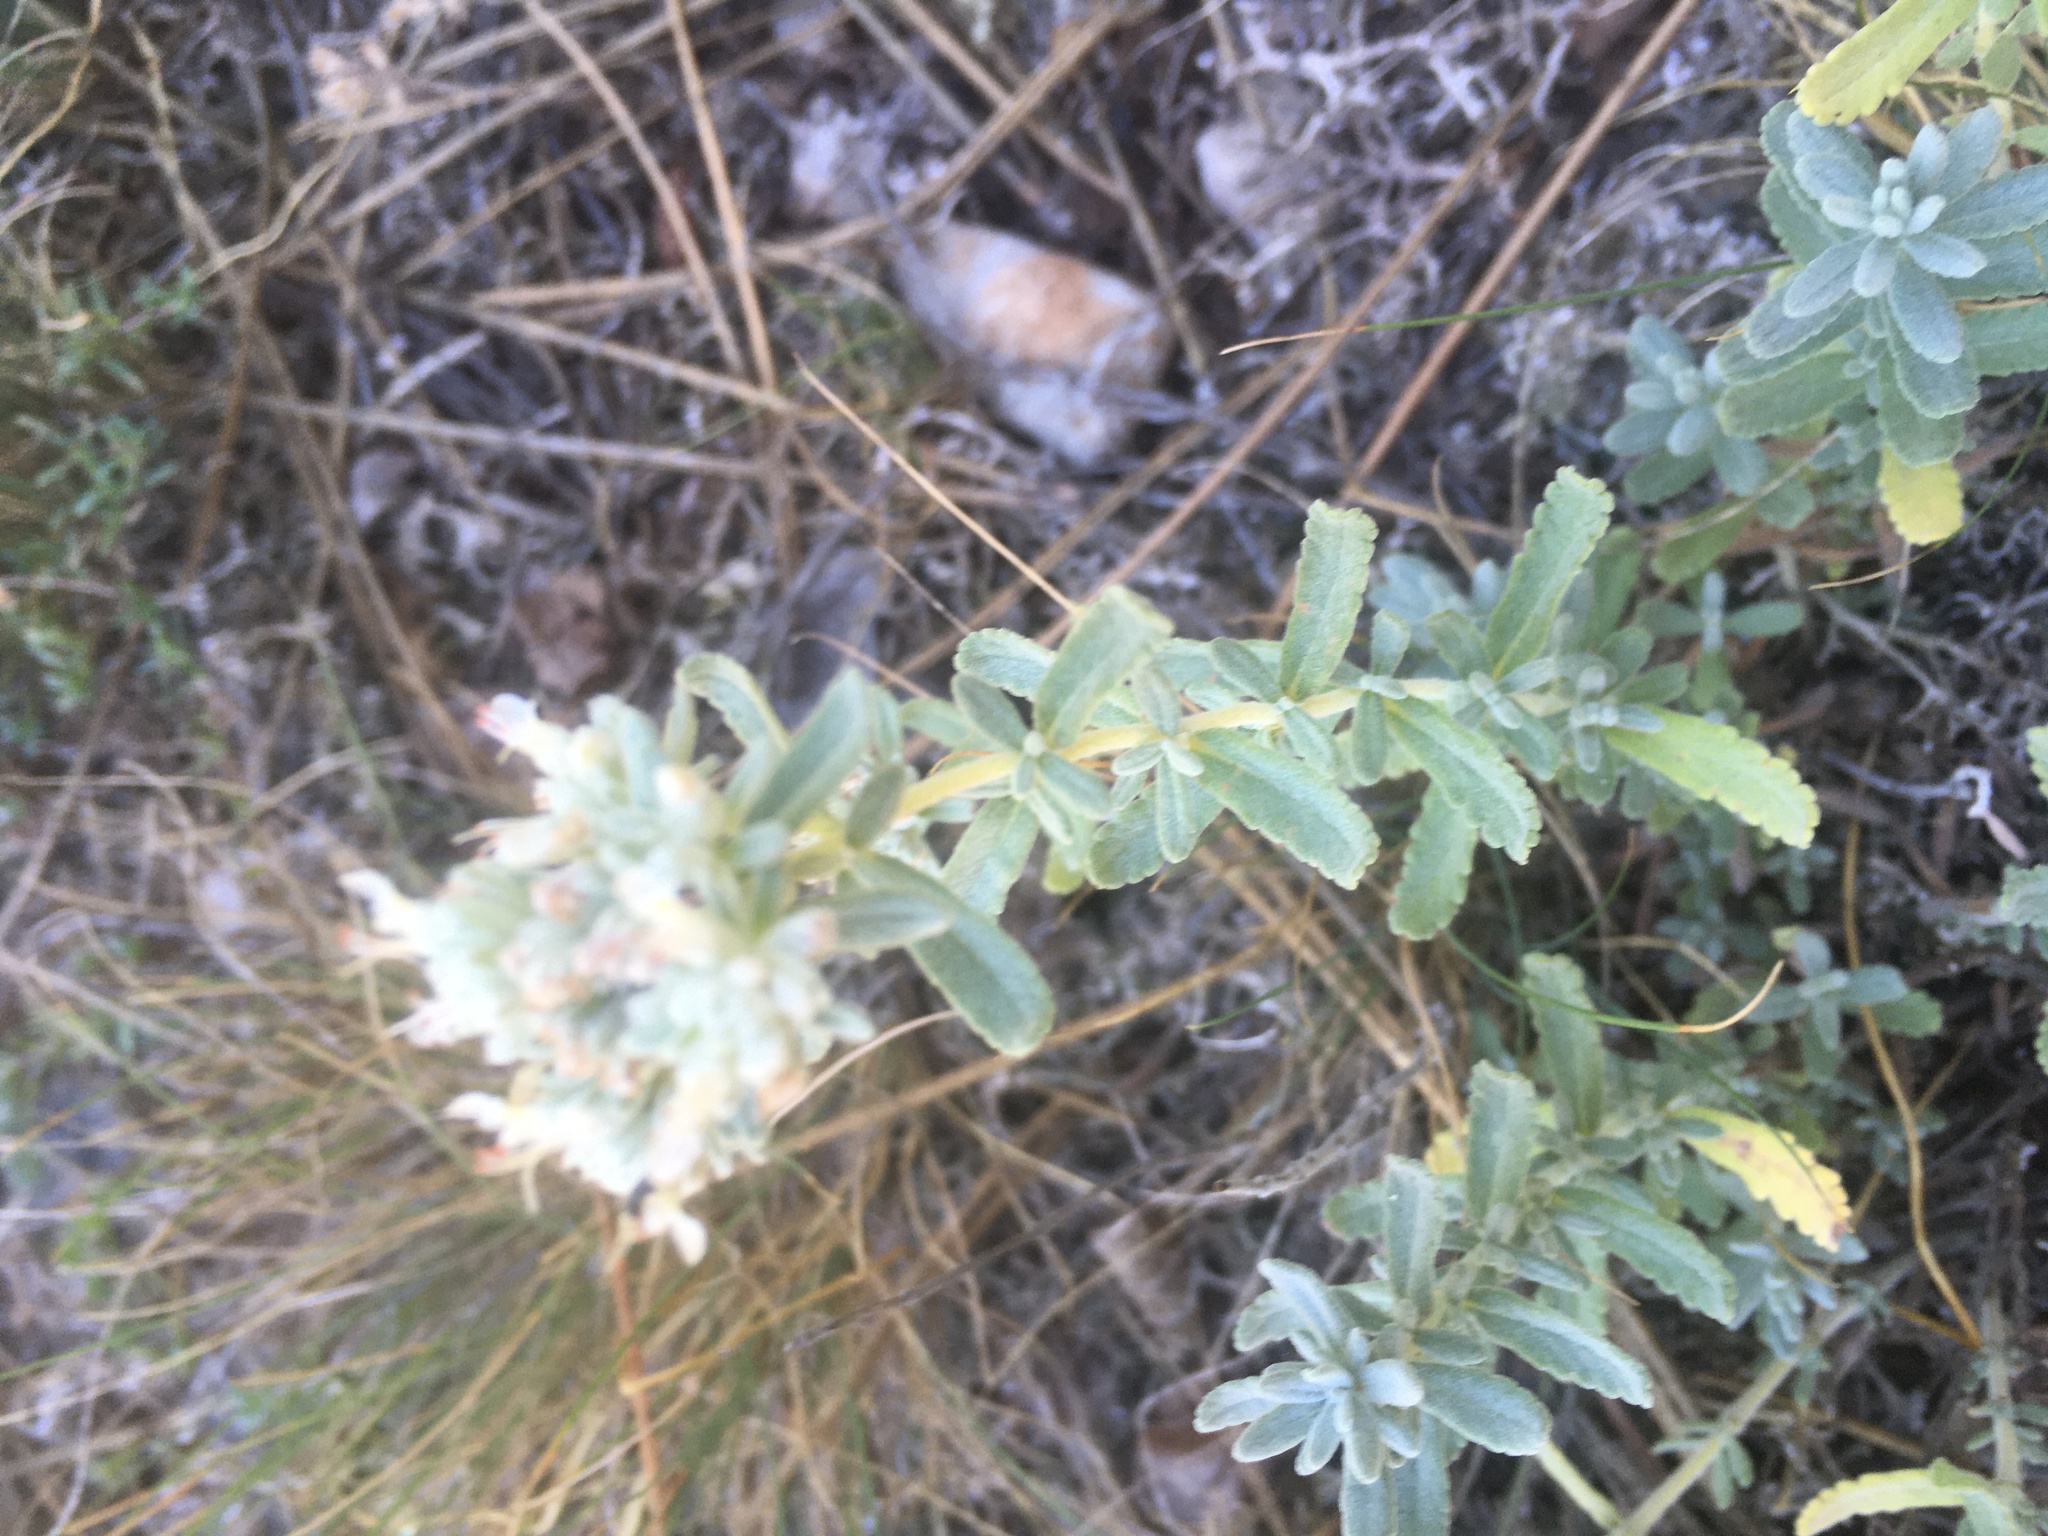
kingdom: Plantae
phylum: Tracheophyta
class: Magnoliopsida
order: Lamiales
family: Lamiaceae
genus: Teucrium
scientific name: Teucrium polium
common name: Poley
